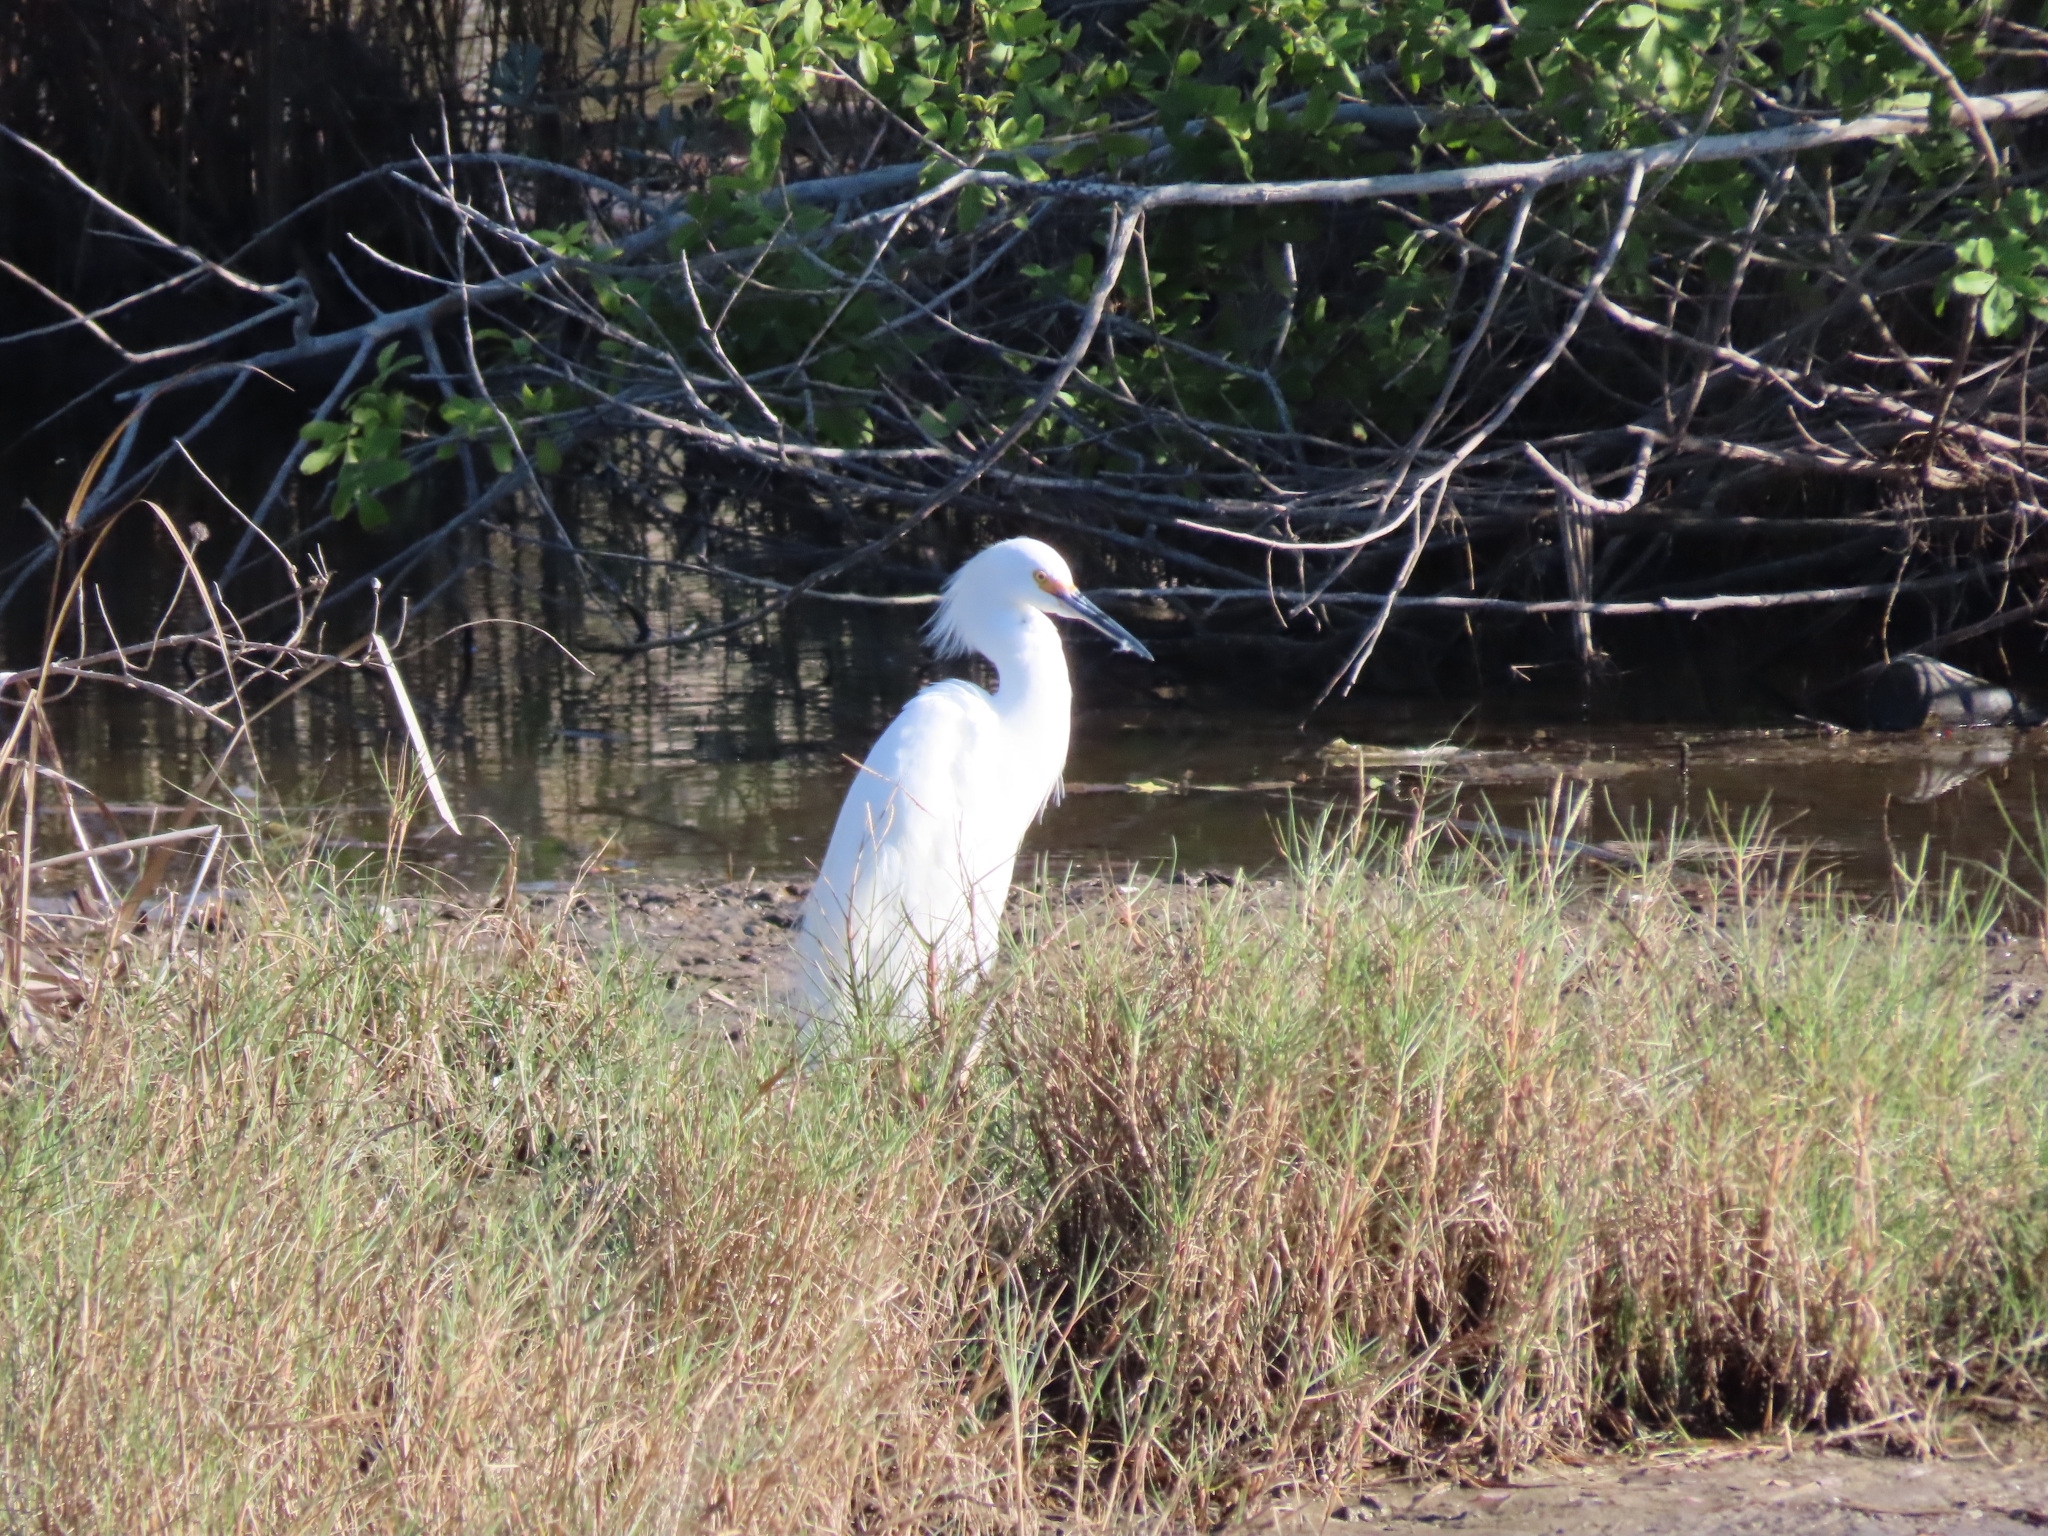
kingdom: Animalia
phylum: Chordata
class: Aves
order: Pelecaniformes
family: Ardeidae
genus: Egretta
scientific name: Egretta thula
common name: Snowy egret
